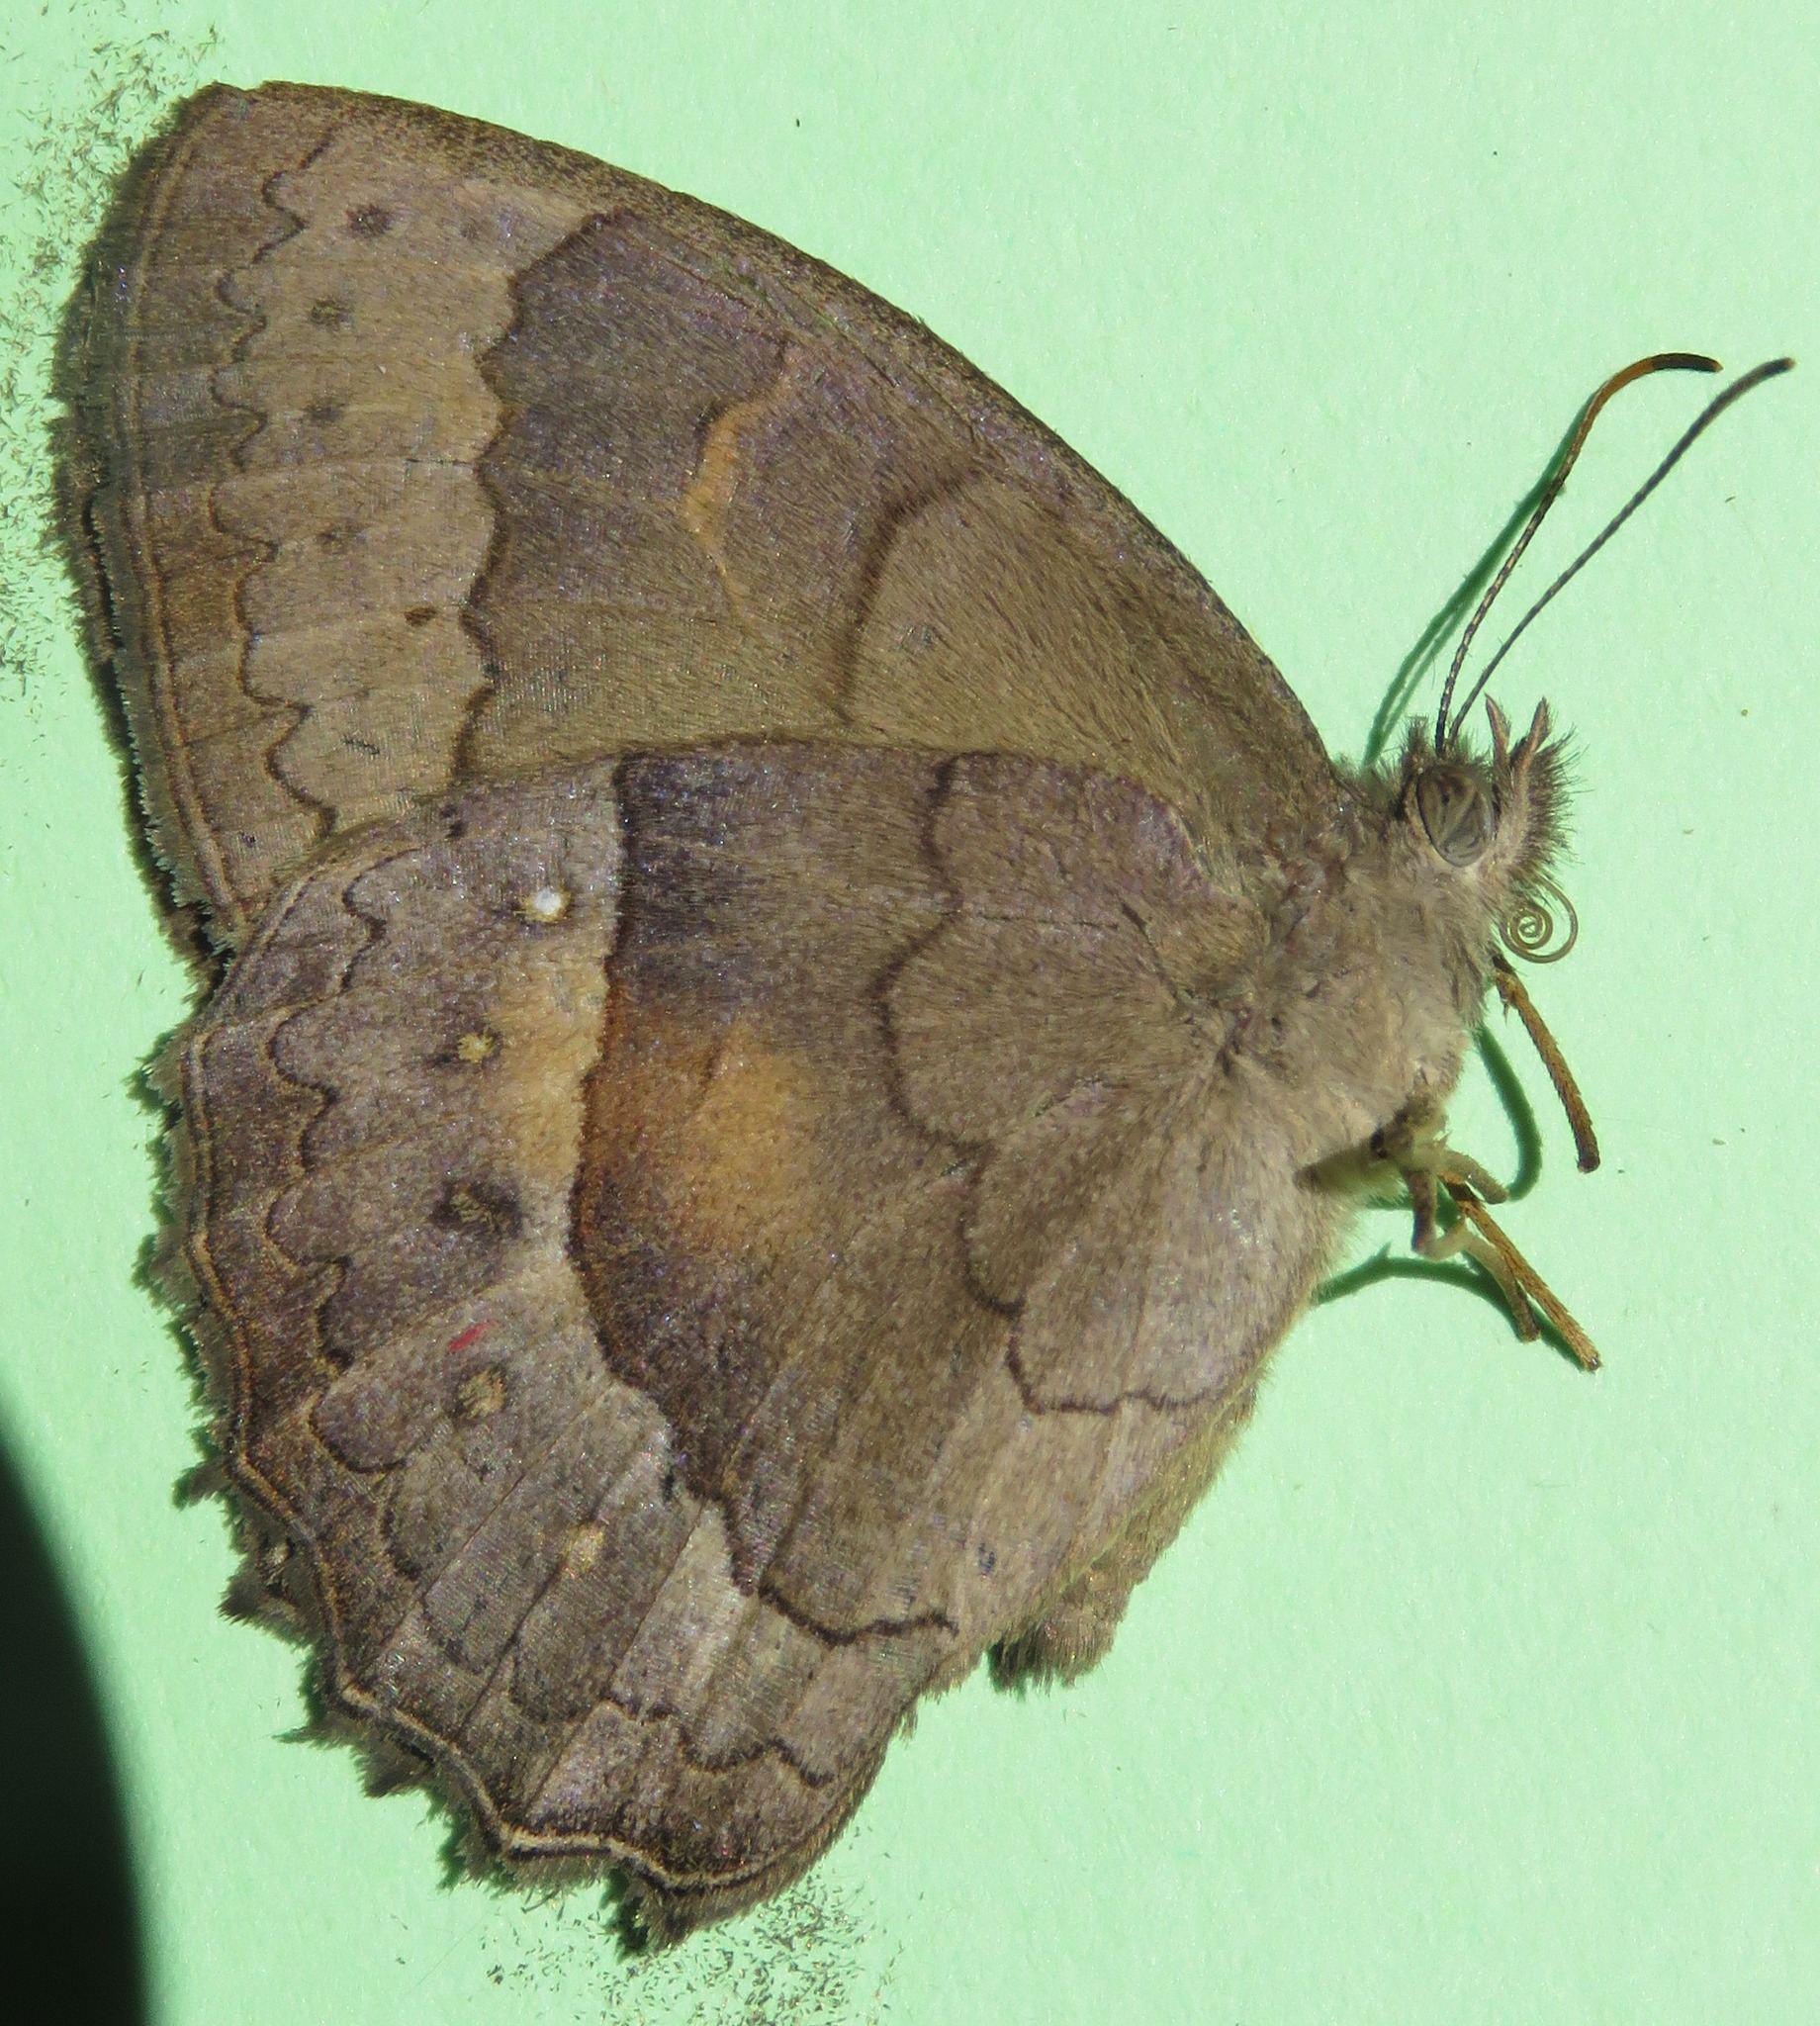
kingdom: Animalia
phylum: Arthropoda
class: Insecta
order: Lepidoptera
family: Nymphalidae
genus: Taygetina
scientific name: Taygetina kerea
